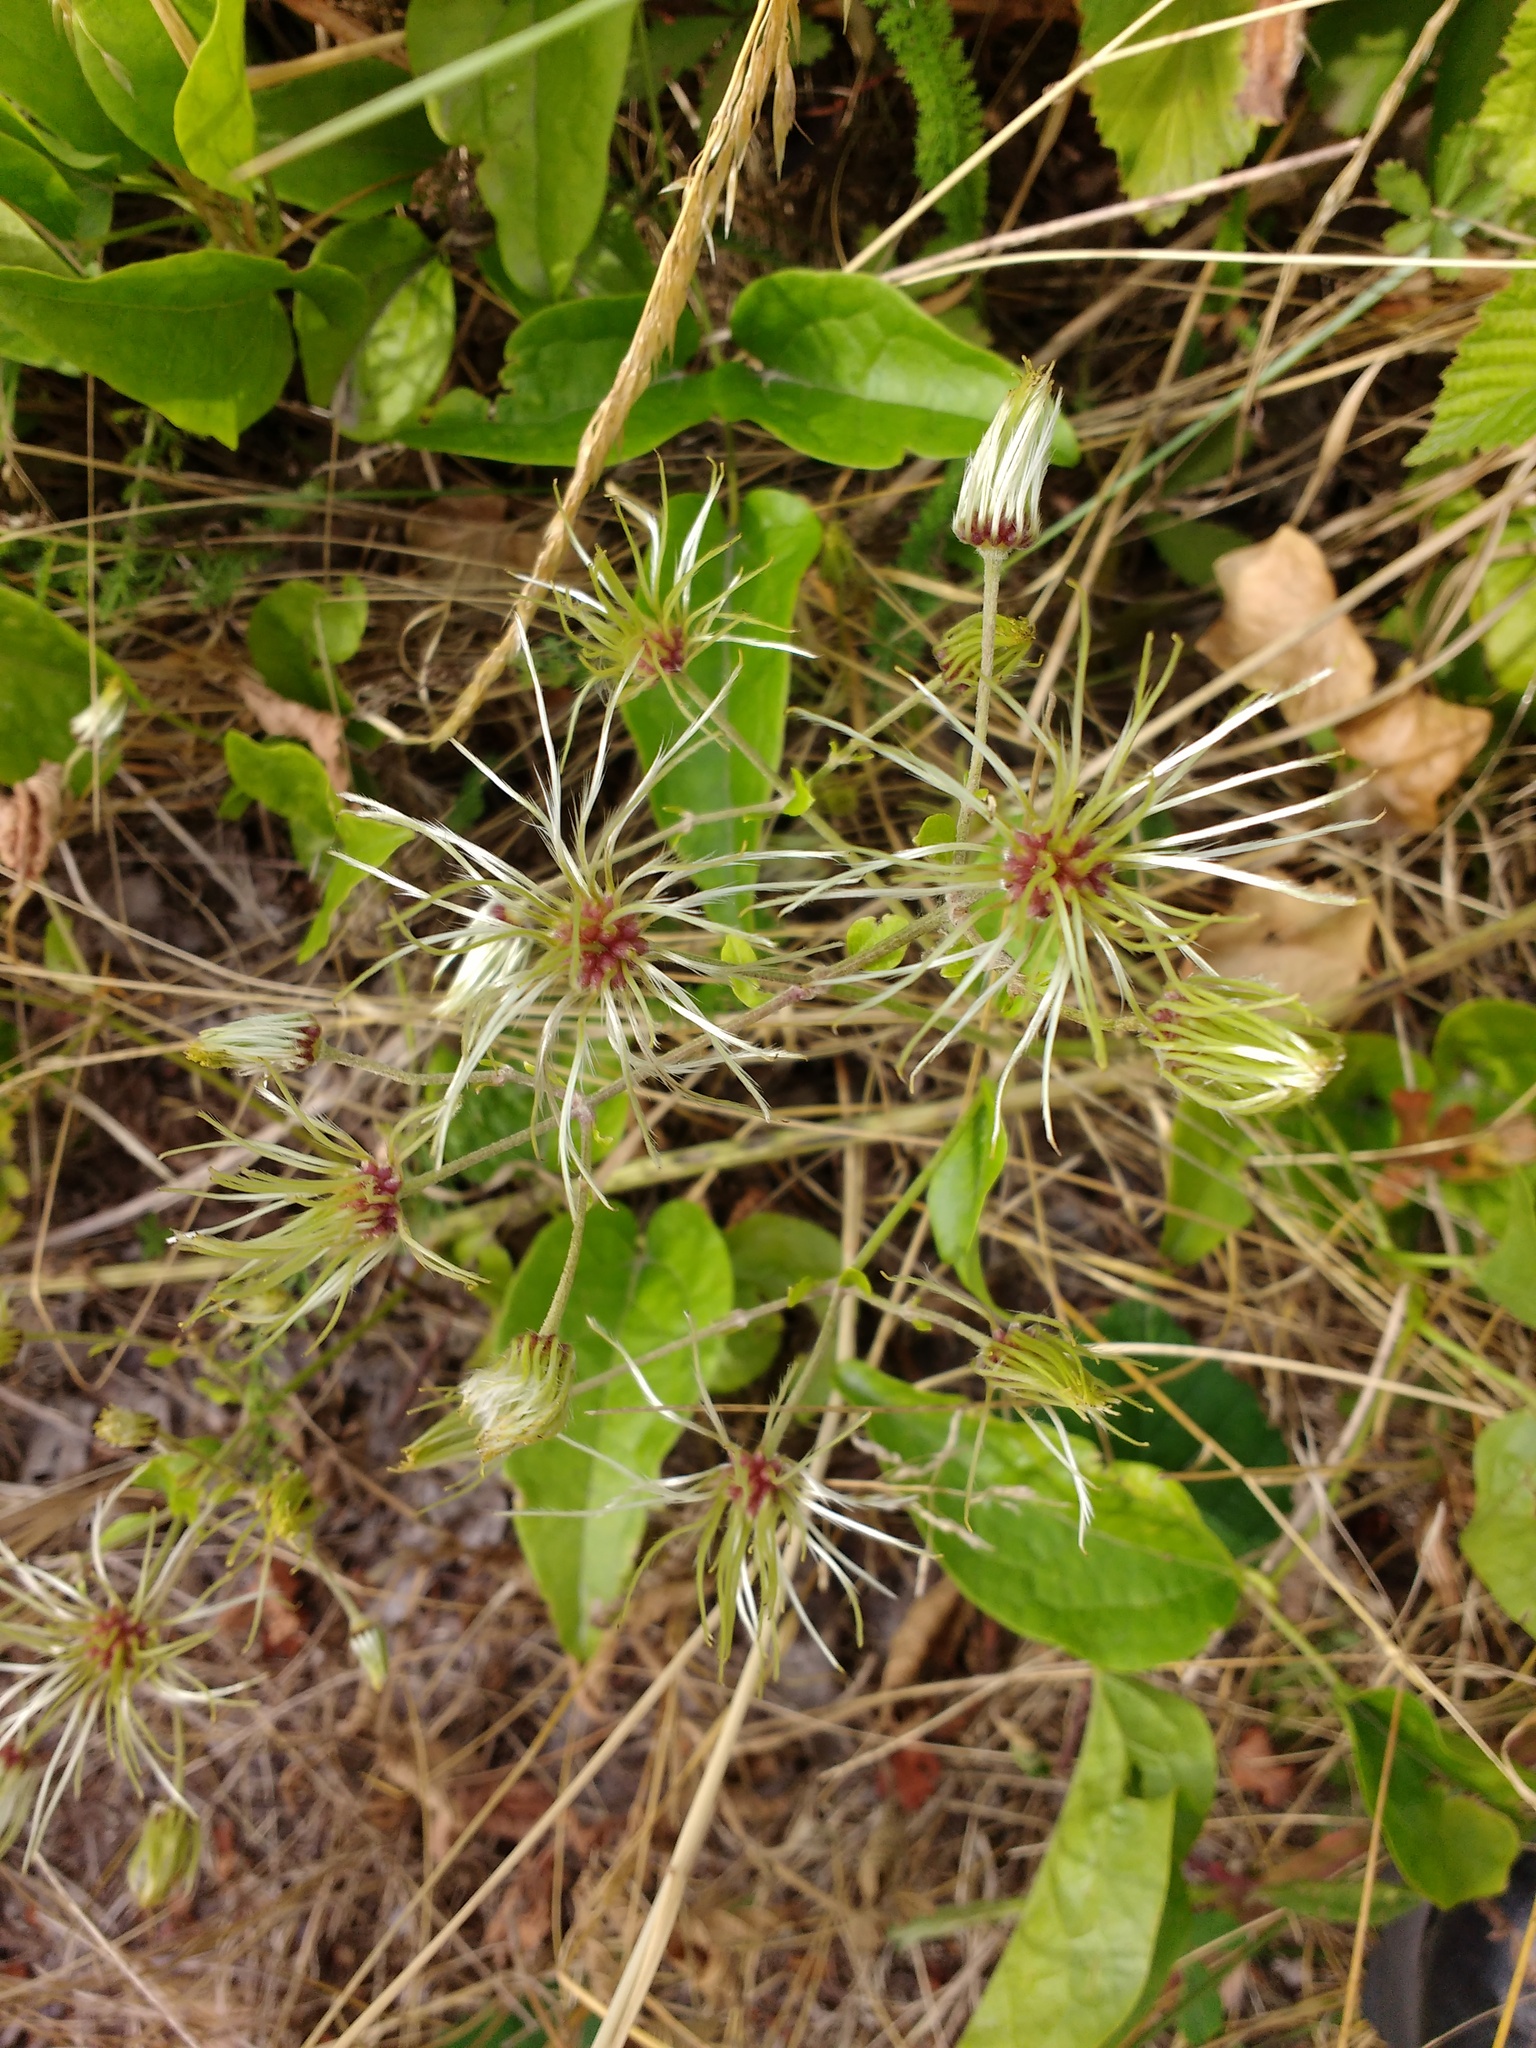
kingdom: Plantae
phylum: Tracheophyta
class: Magnoliopsida
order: Ranunculales
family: Ranunculaceae
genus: Clematis
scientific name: Clematis vitalba
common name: Evergreen clematis
